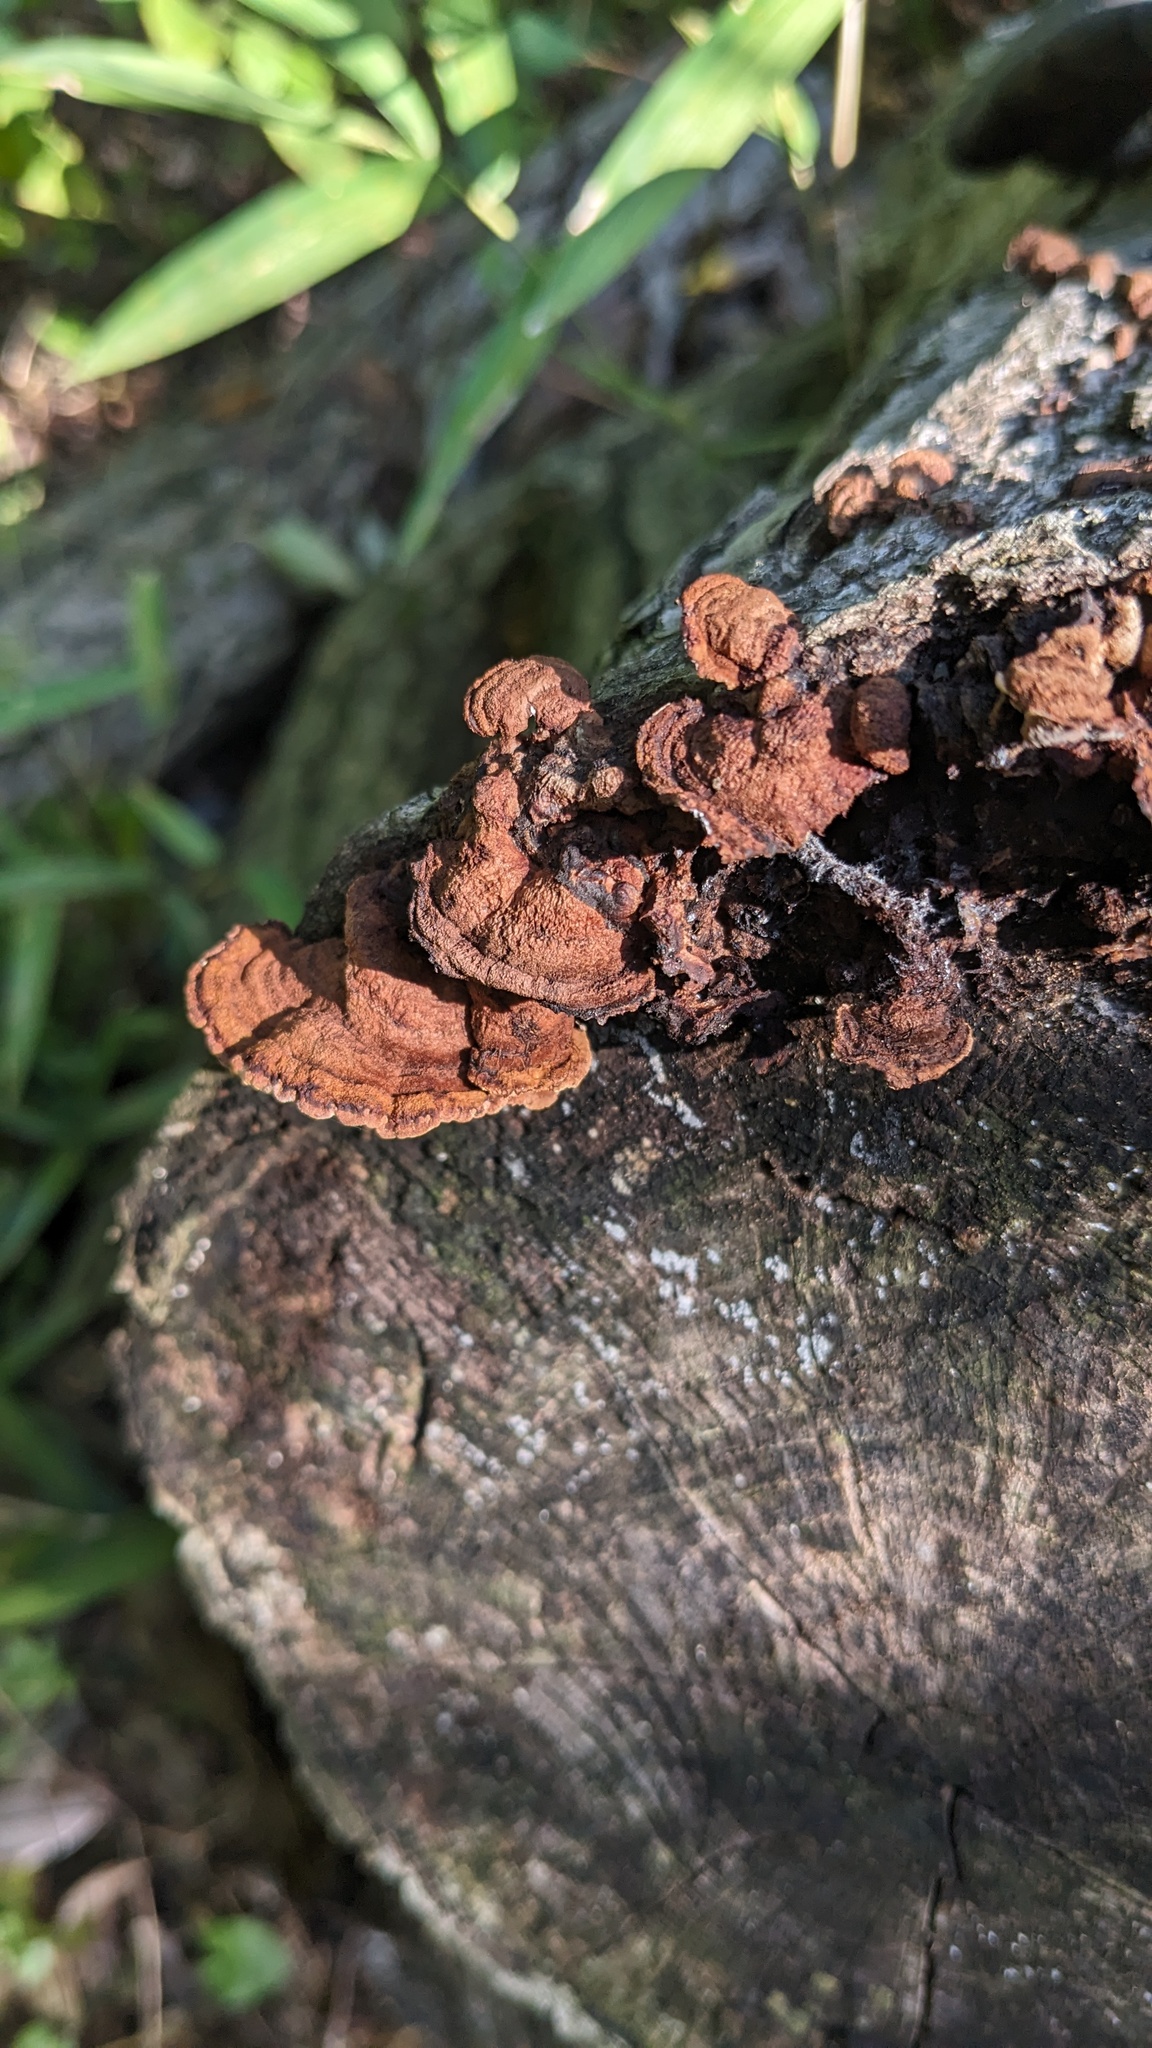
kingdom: Fungi
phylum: Basidiomycota
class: Agaricomycetes
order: Corticiales
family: Punctulariaceae
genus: Punctularia
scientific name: Punctularia strigosozonata
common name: White-rot fungus
